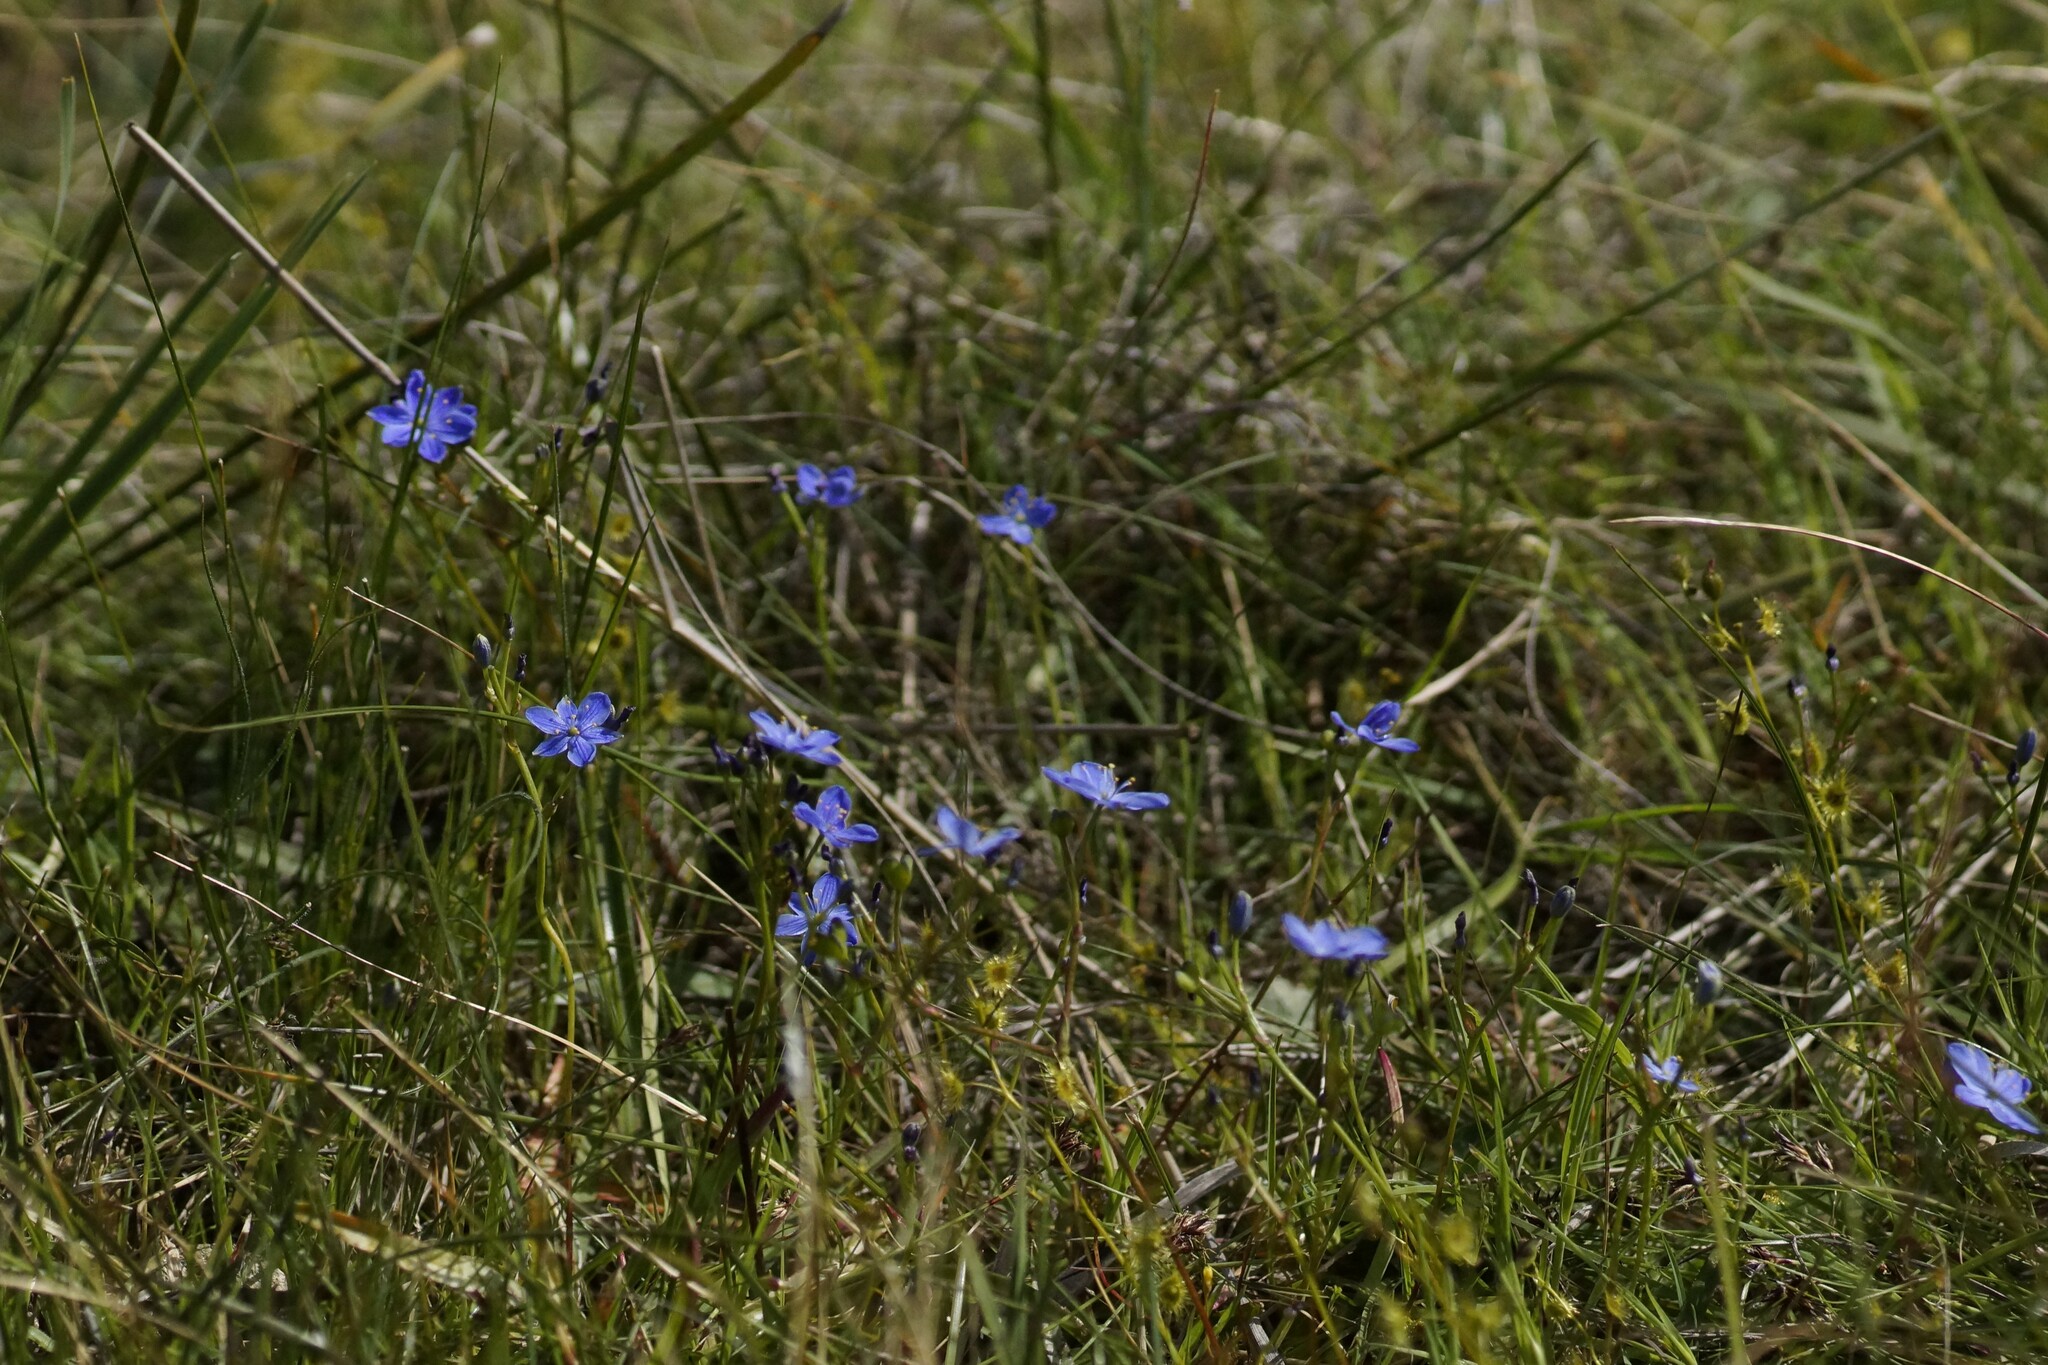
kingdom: Plantae
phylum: Tracheophyta
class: Liliopsida
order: Asparagales
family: Asphodelaceae
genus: Chamaescilla
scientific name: Chamaescilla corymbosa
